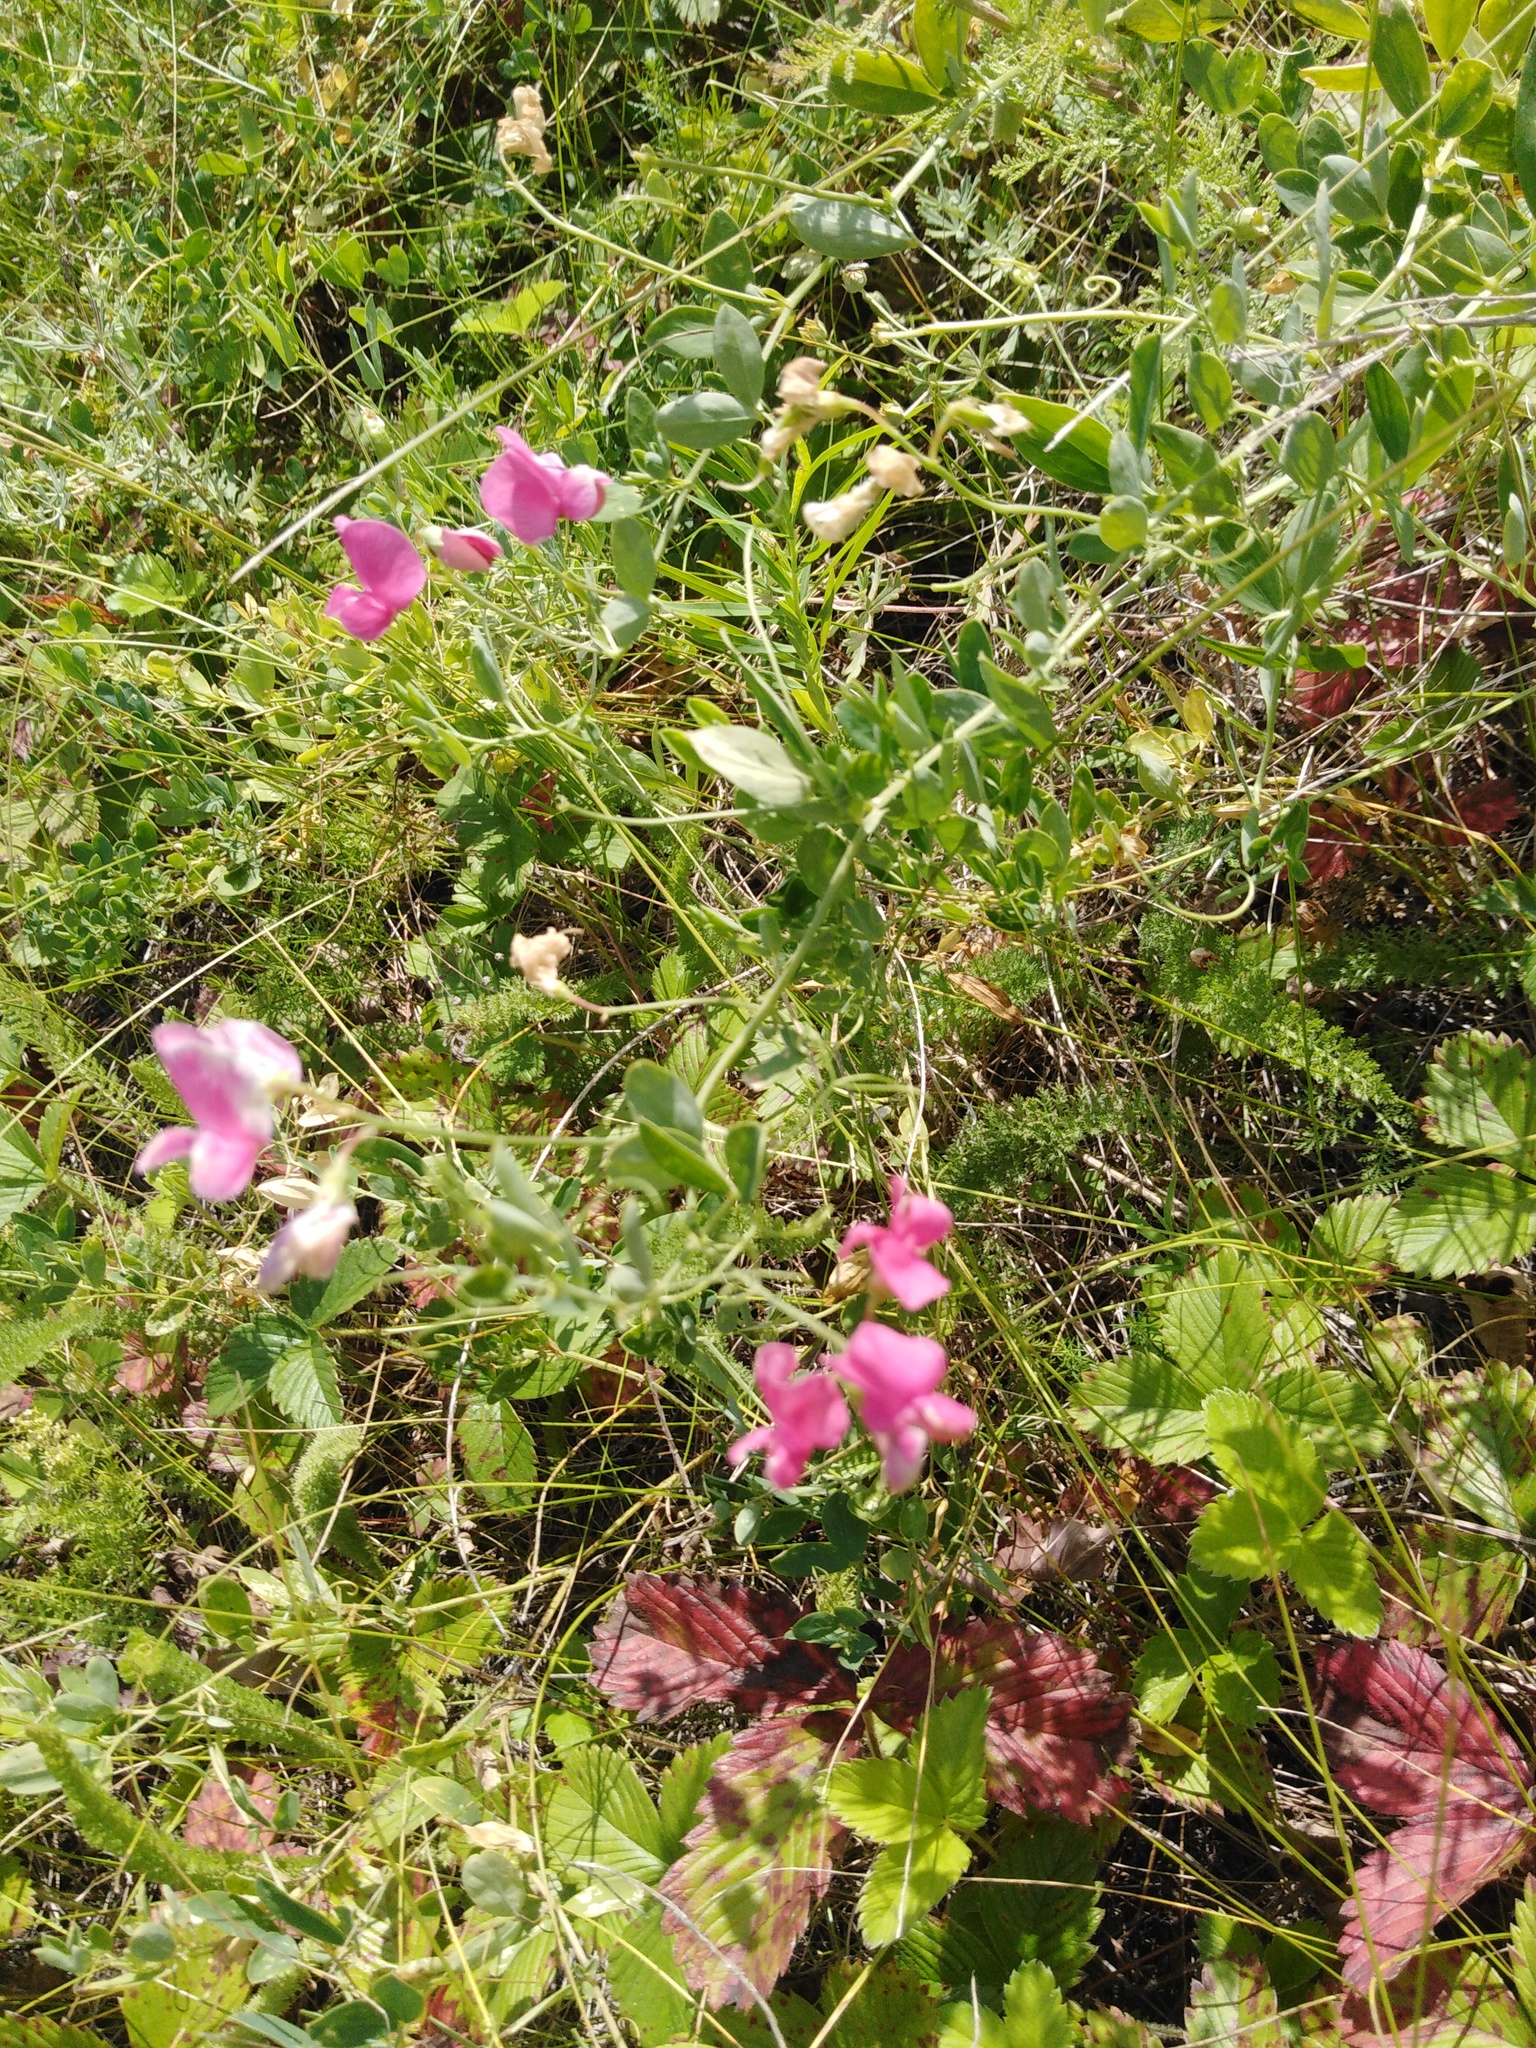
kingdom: Plantae
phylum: Tracheophyta
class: Magnoliopsida
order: Fabales
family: Fabaceae
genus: Lathyrus
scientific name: Lathyrus tuberosus
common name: Tuberous pea
